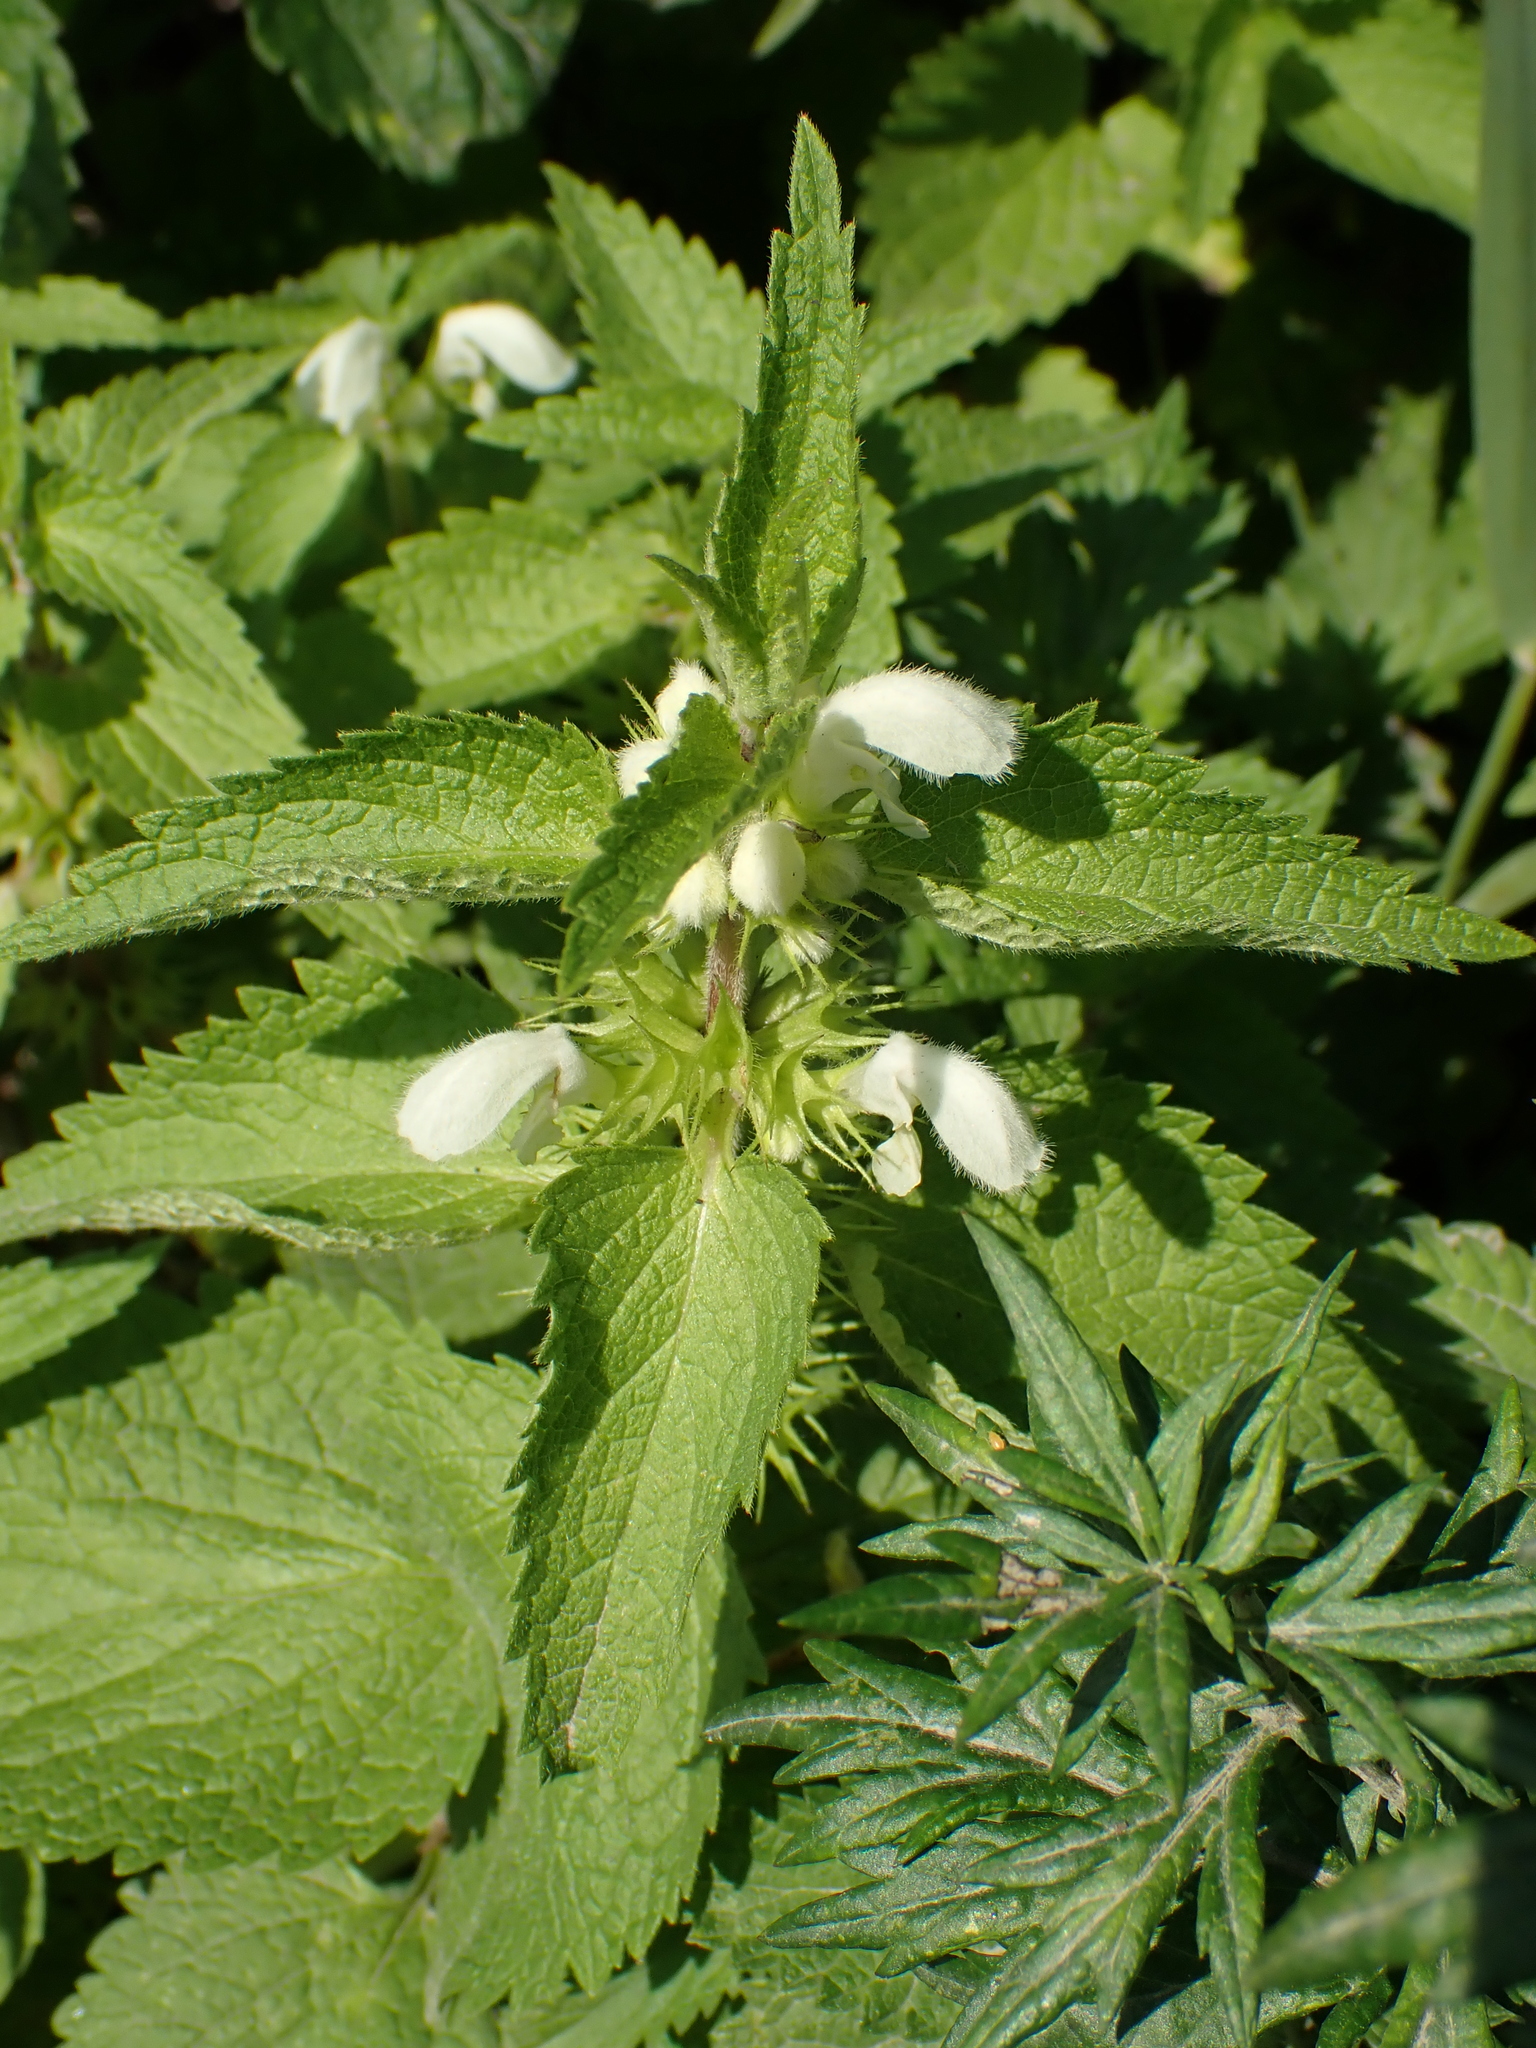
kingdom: Plantae
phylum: Tracheophyta
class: Magnoliopsida
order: Lamiales
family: Lamiaceae
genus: Lamium
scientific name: Lamium album
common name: White dead-nettle
